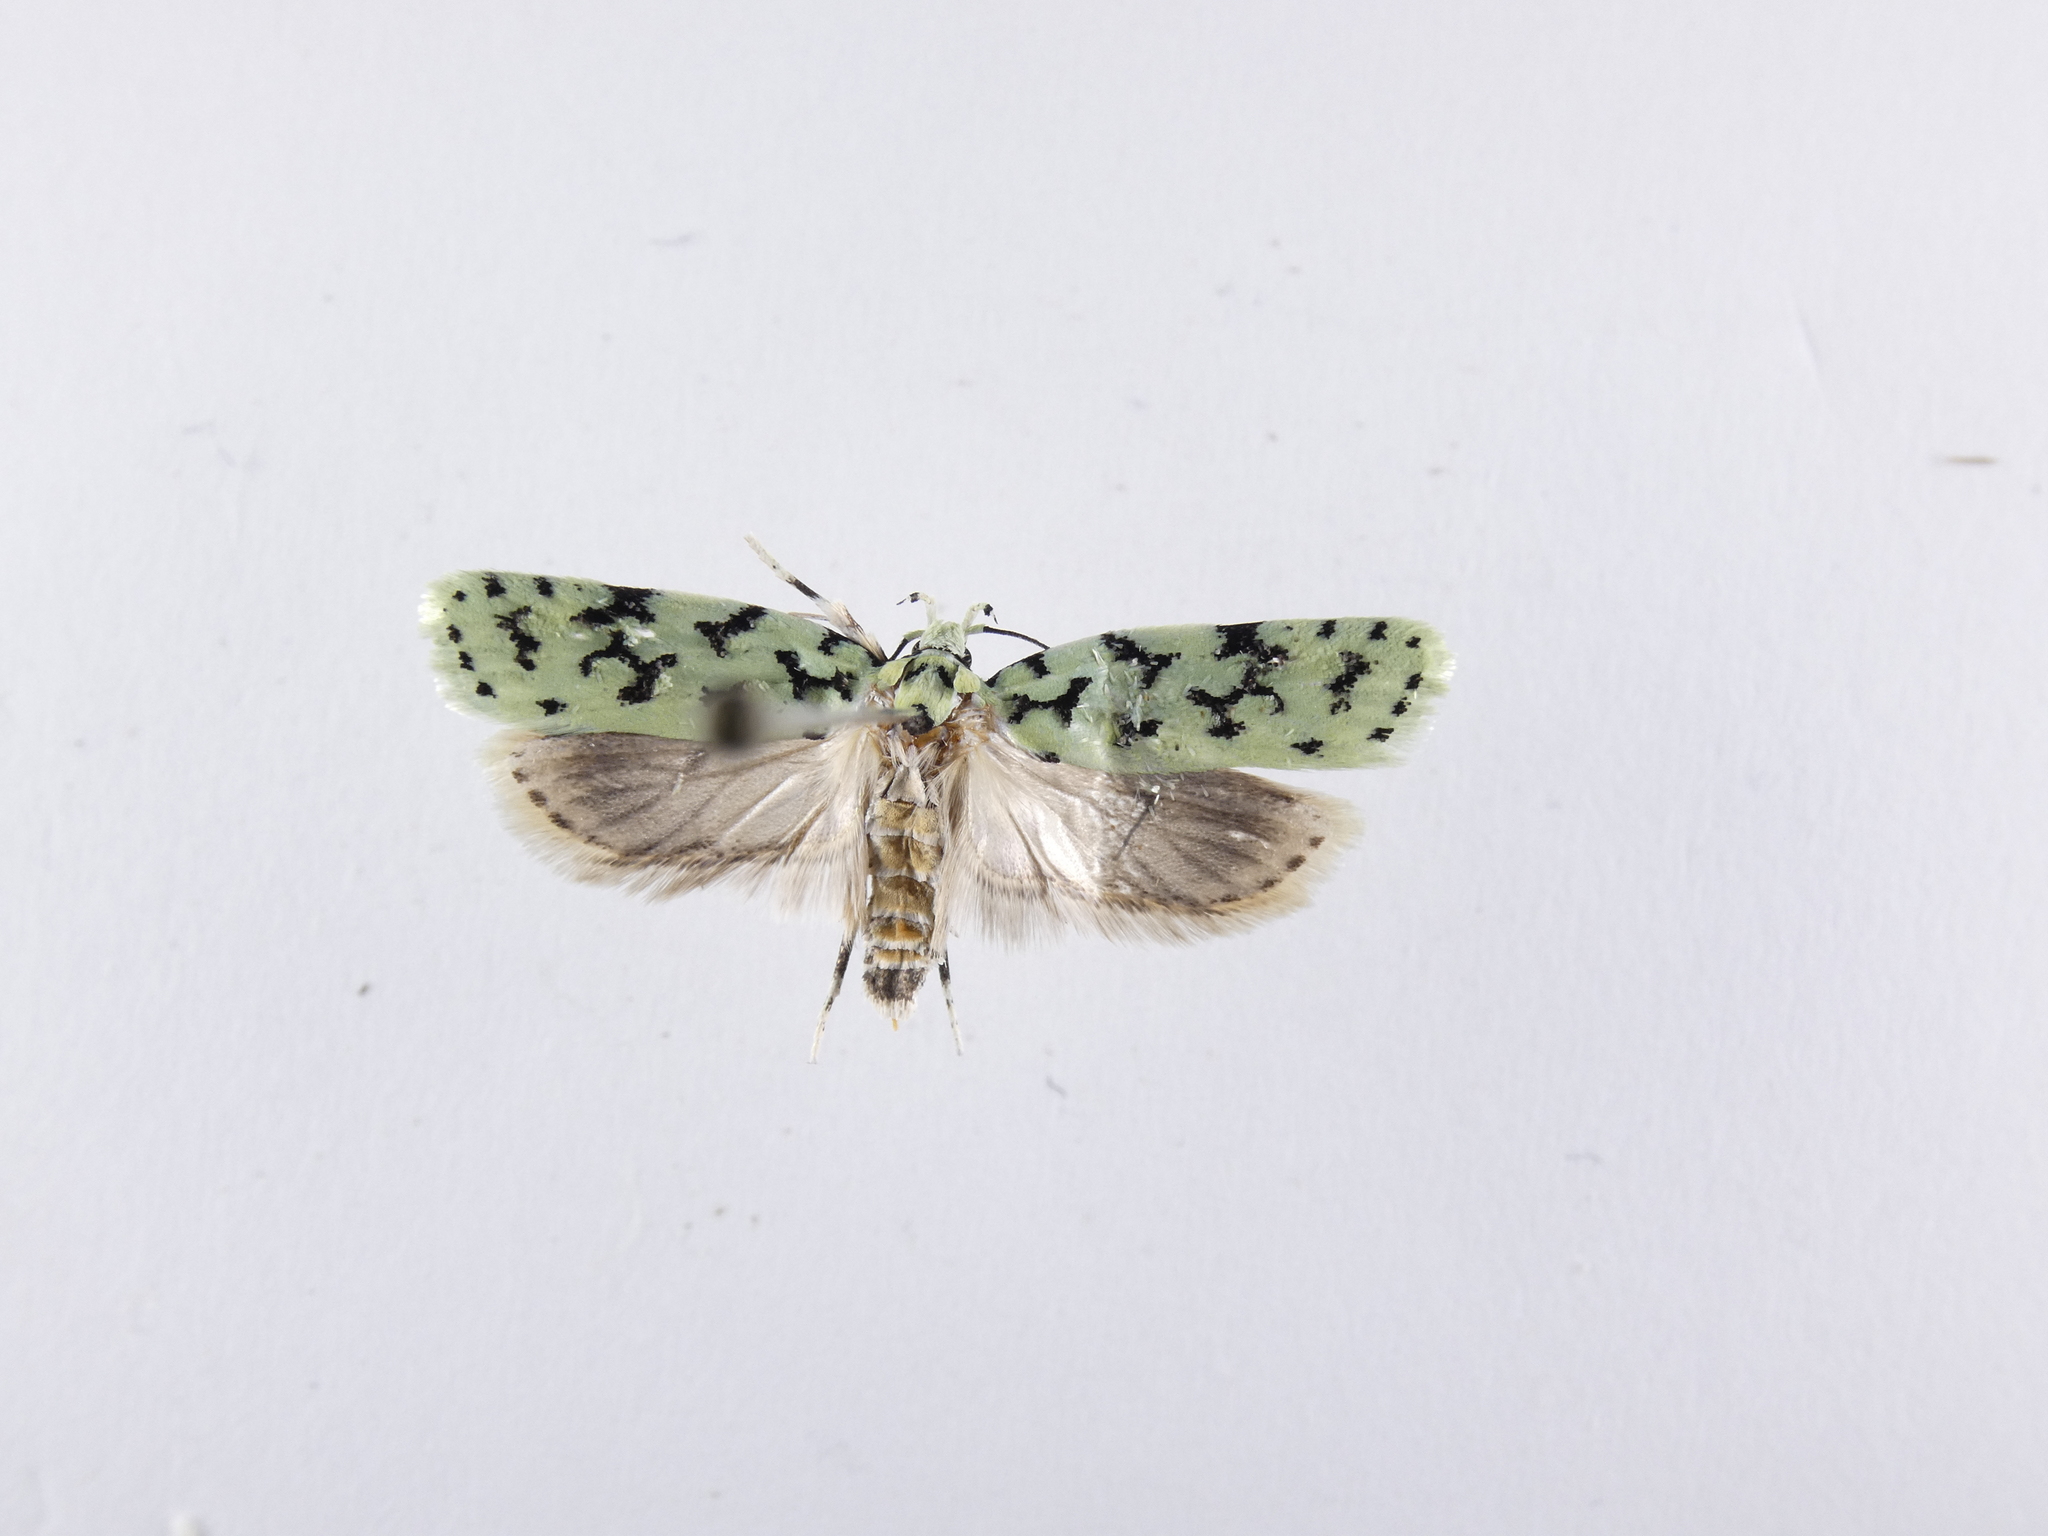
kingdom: Animalia
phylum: Arthropoda
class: Insecta
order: Lepidoptera
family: Oecophoridae
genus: Izatha
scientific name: Izatha huttoni
